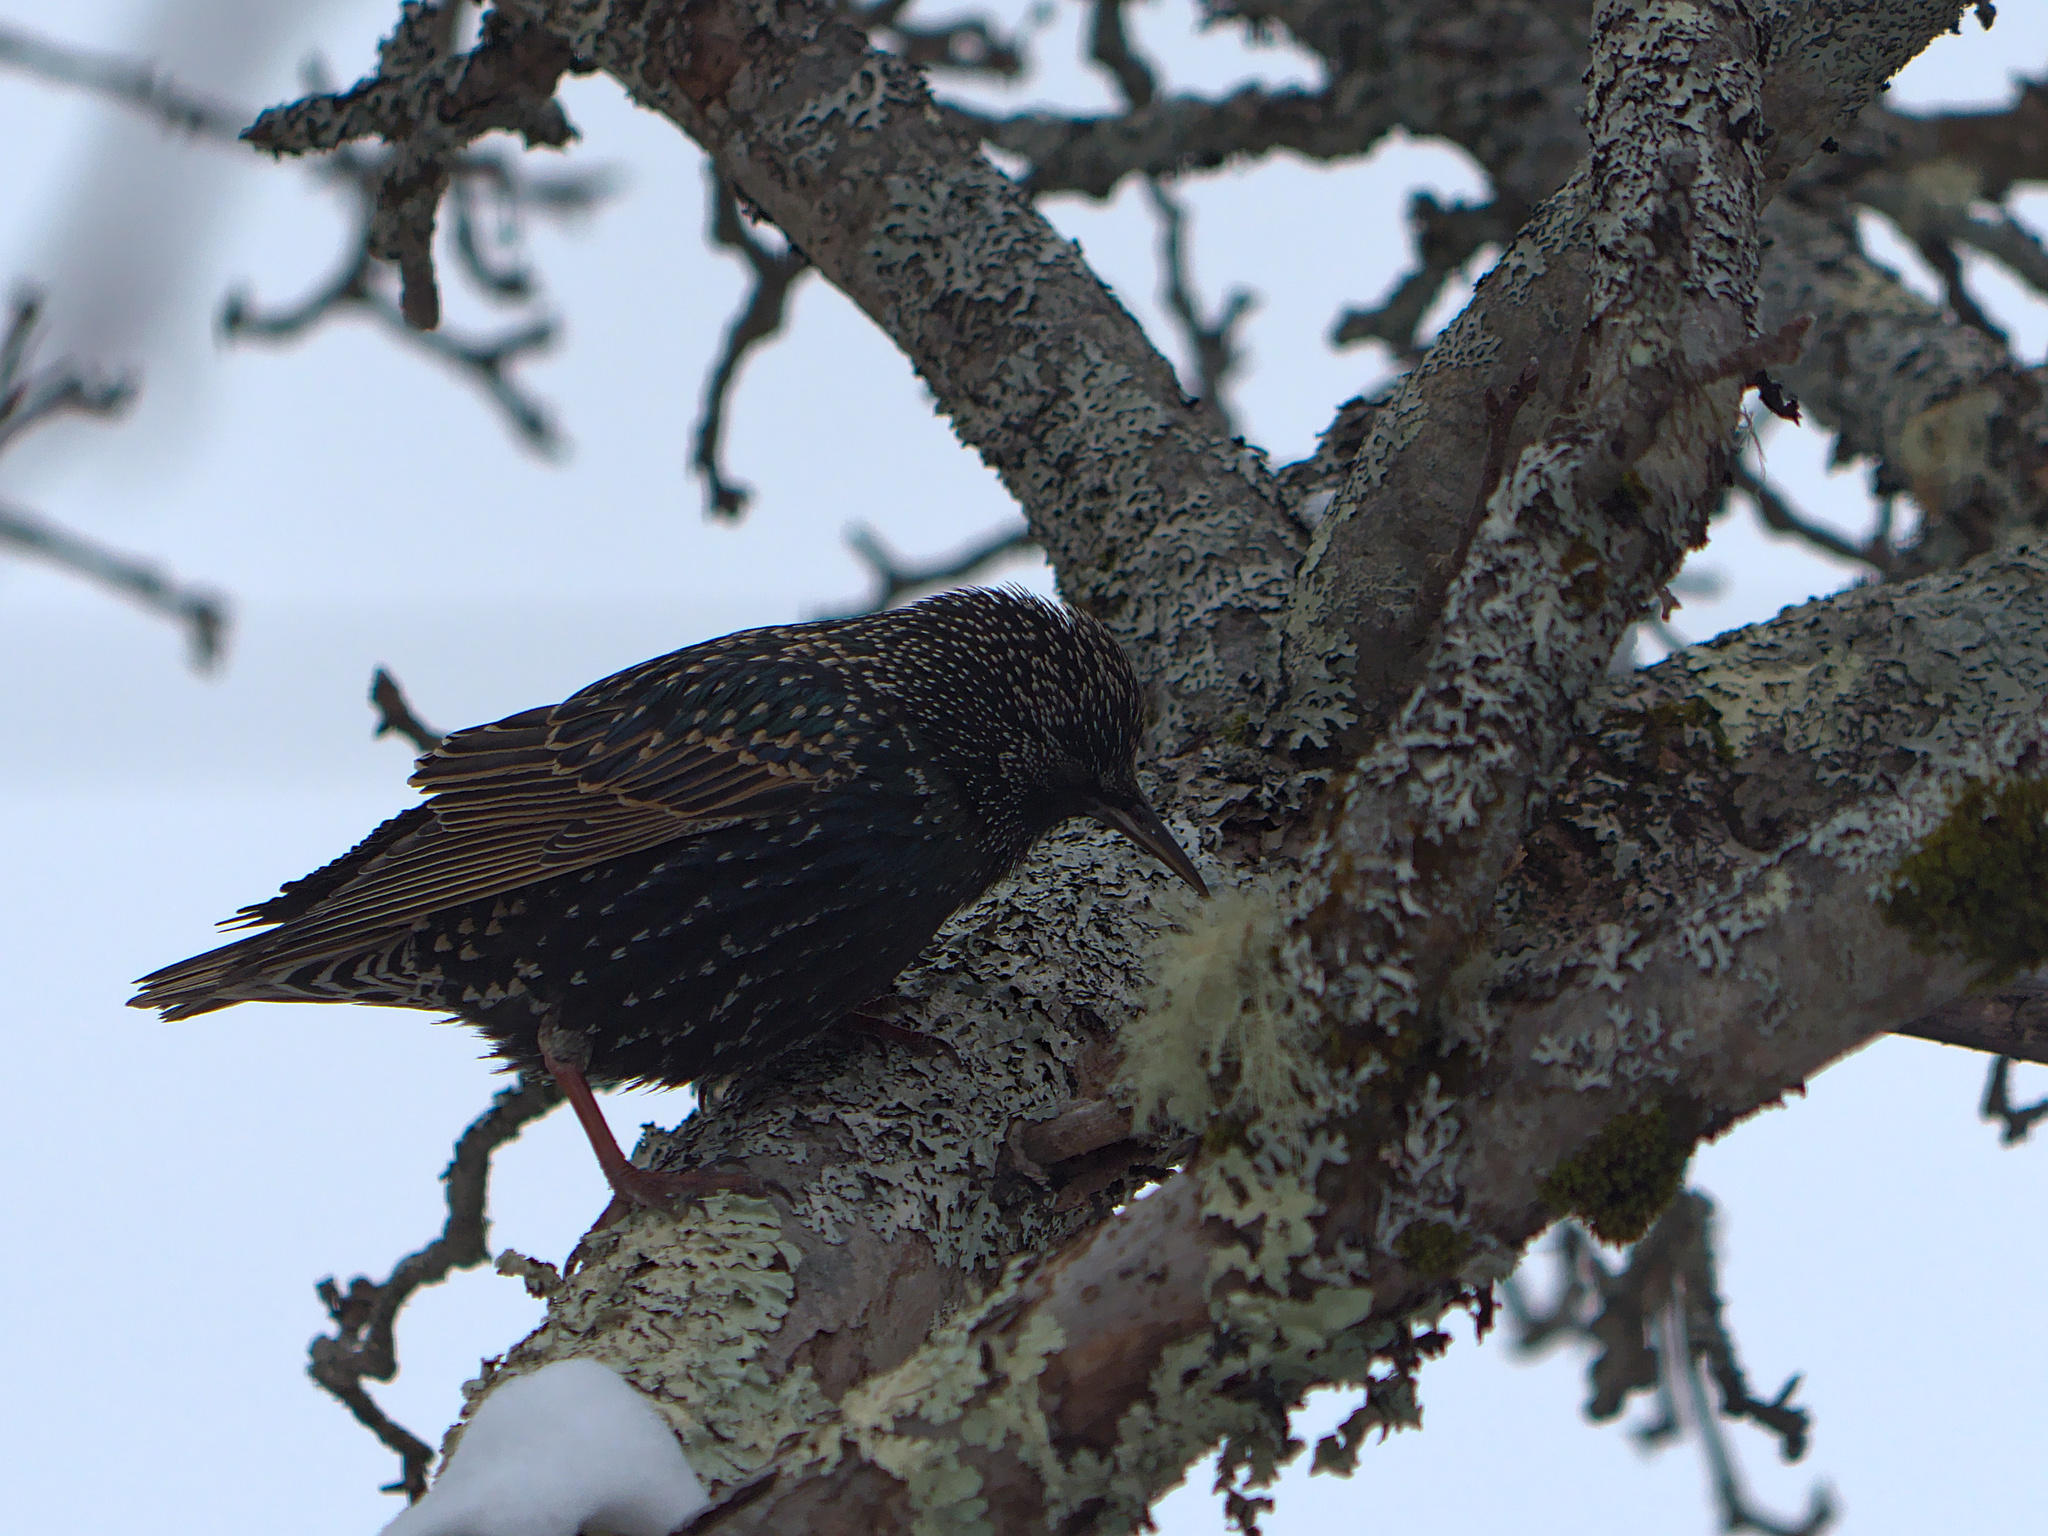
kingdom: Animalia
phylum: Chordata
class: Aves
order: Passeriformes
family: Sturnidae
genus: Sturnus
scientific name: Sturnus vulgaris
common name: Common starling
